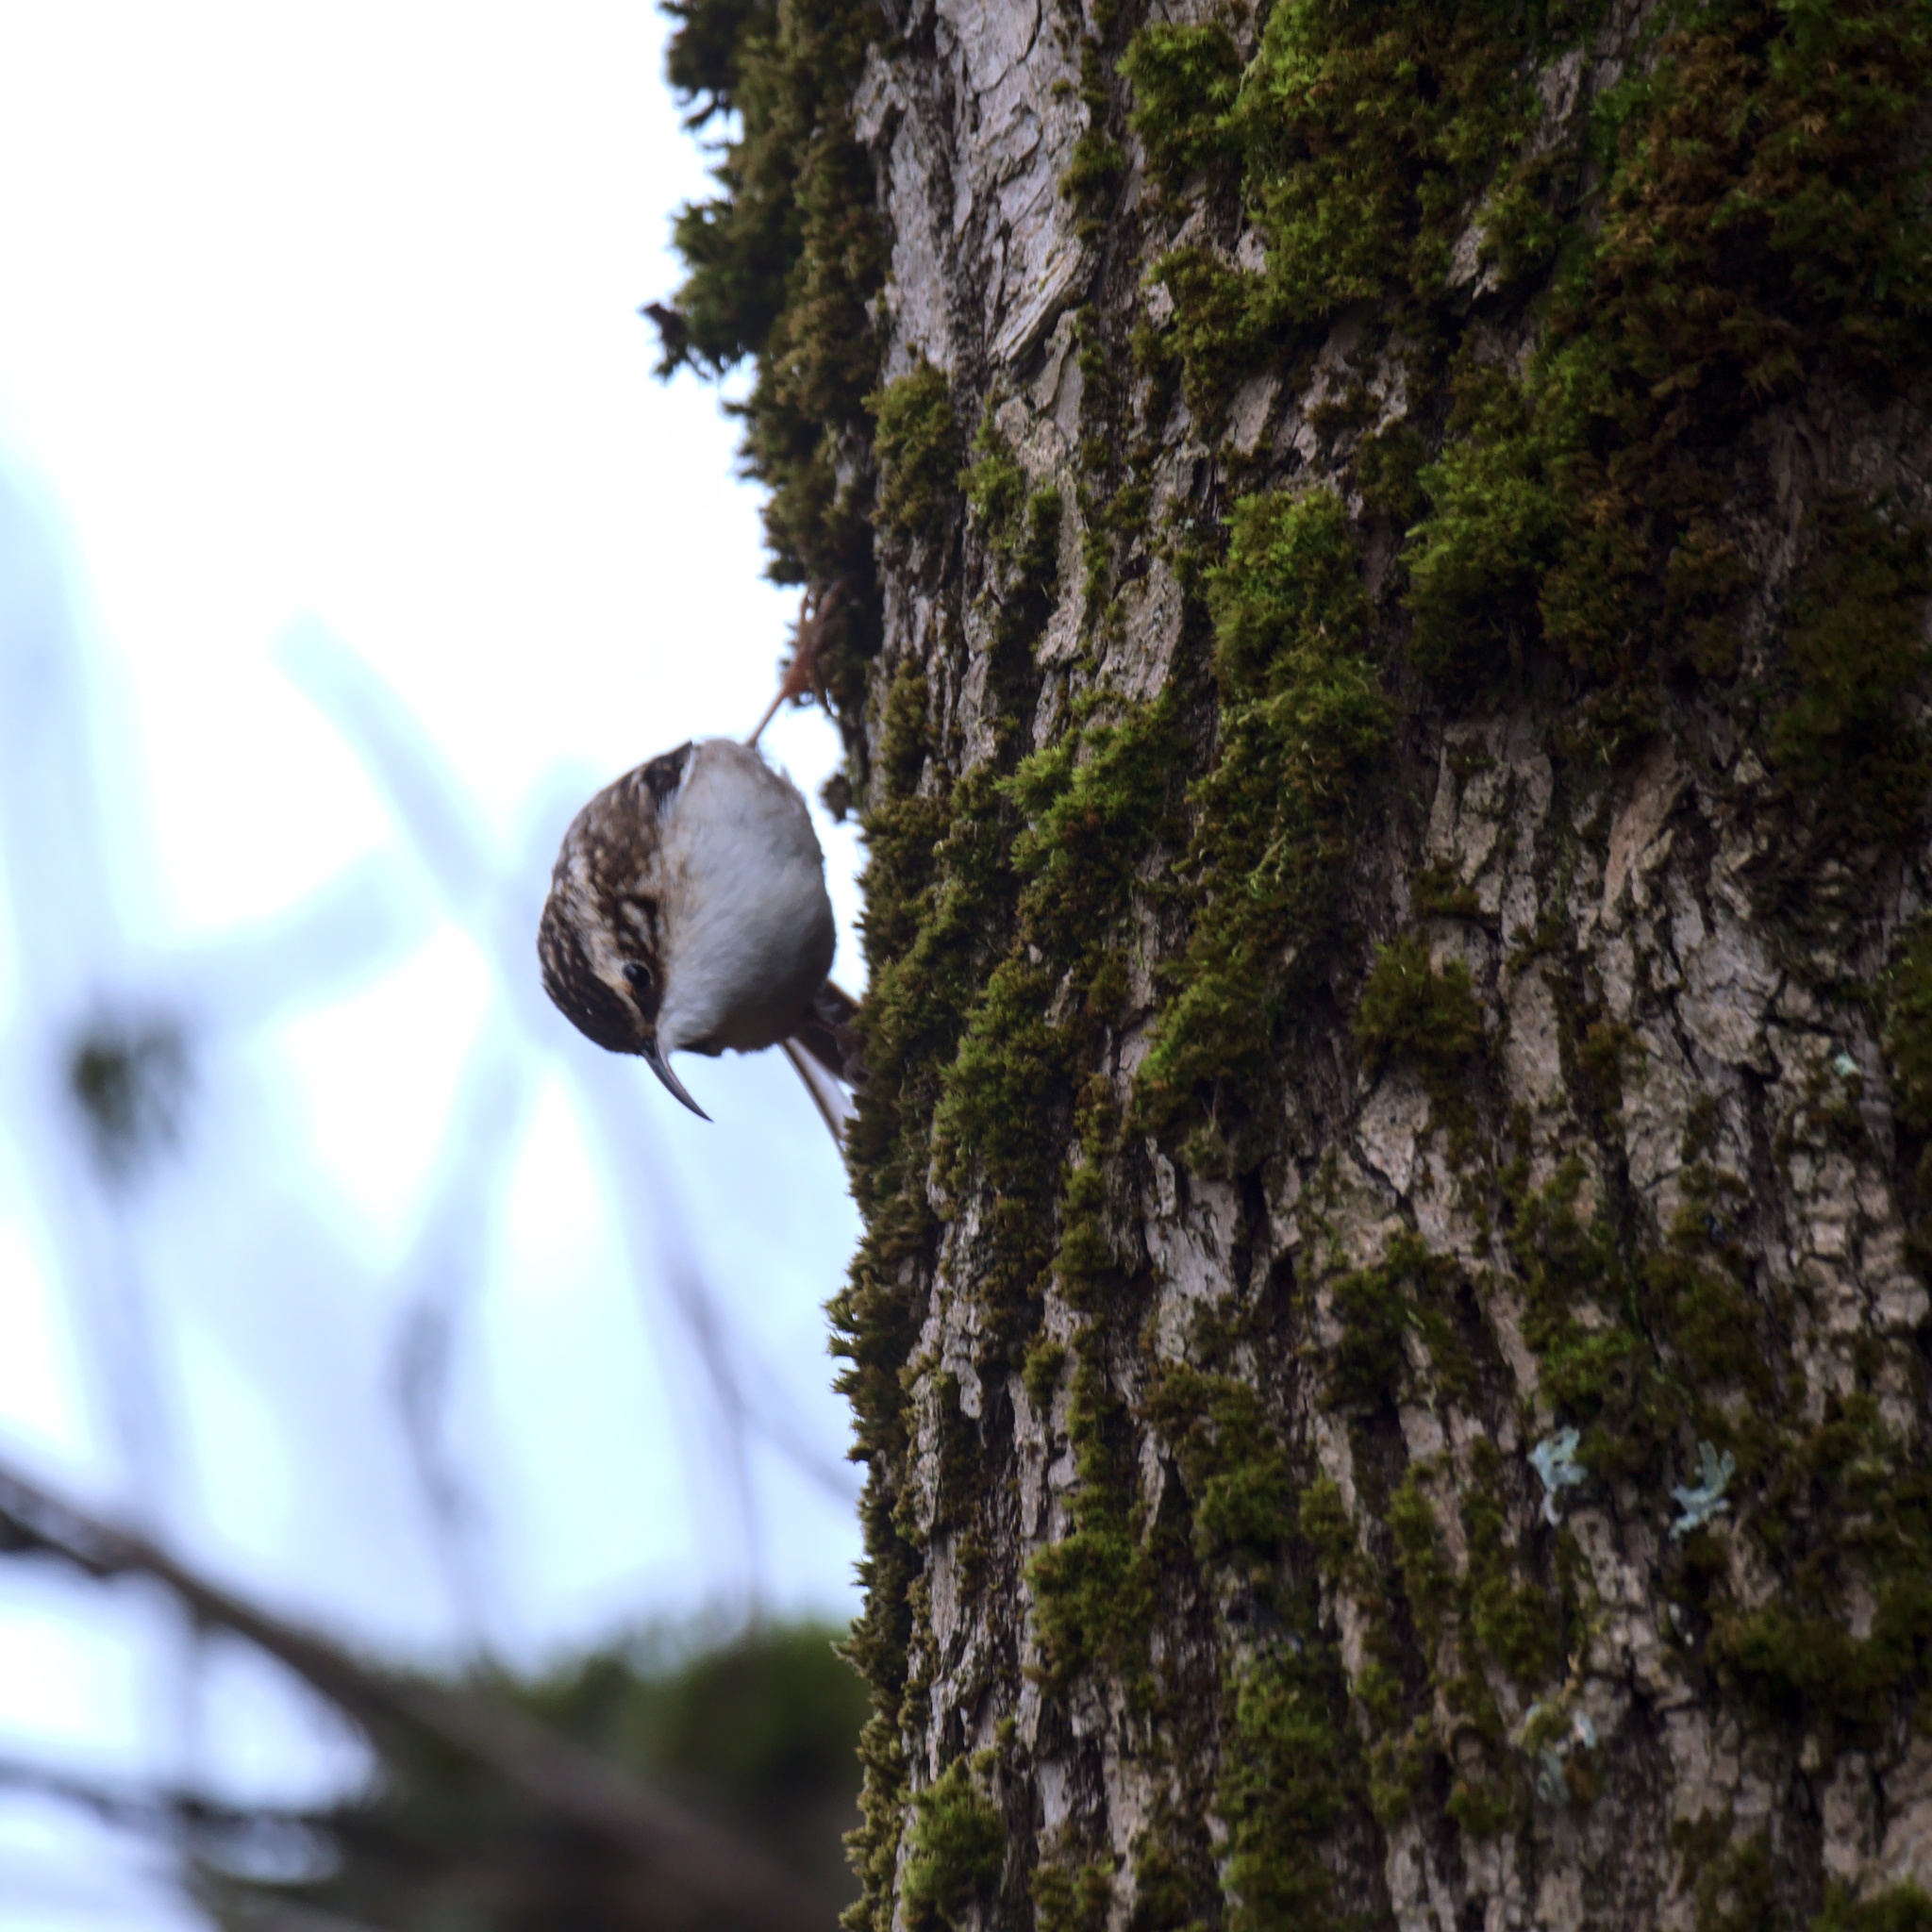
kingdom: Animalia
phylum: Chordata
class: Aves
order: Passeriformes
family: Certhiidae
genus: Certhia
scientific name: Certhia americana
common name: Brown creeper
